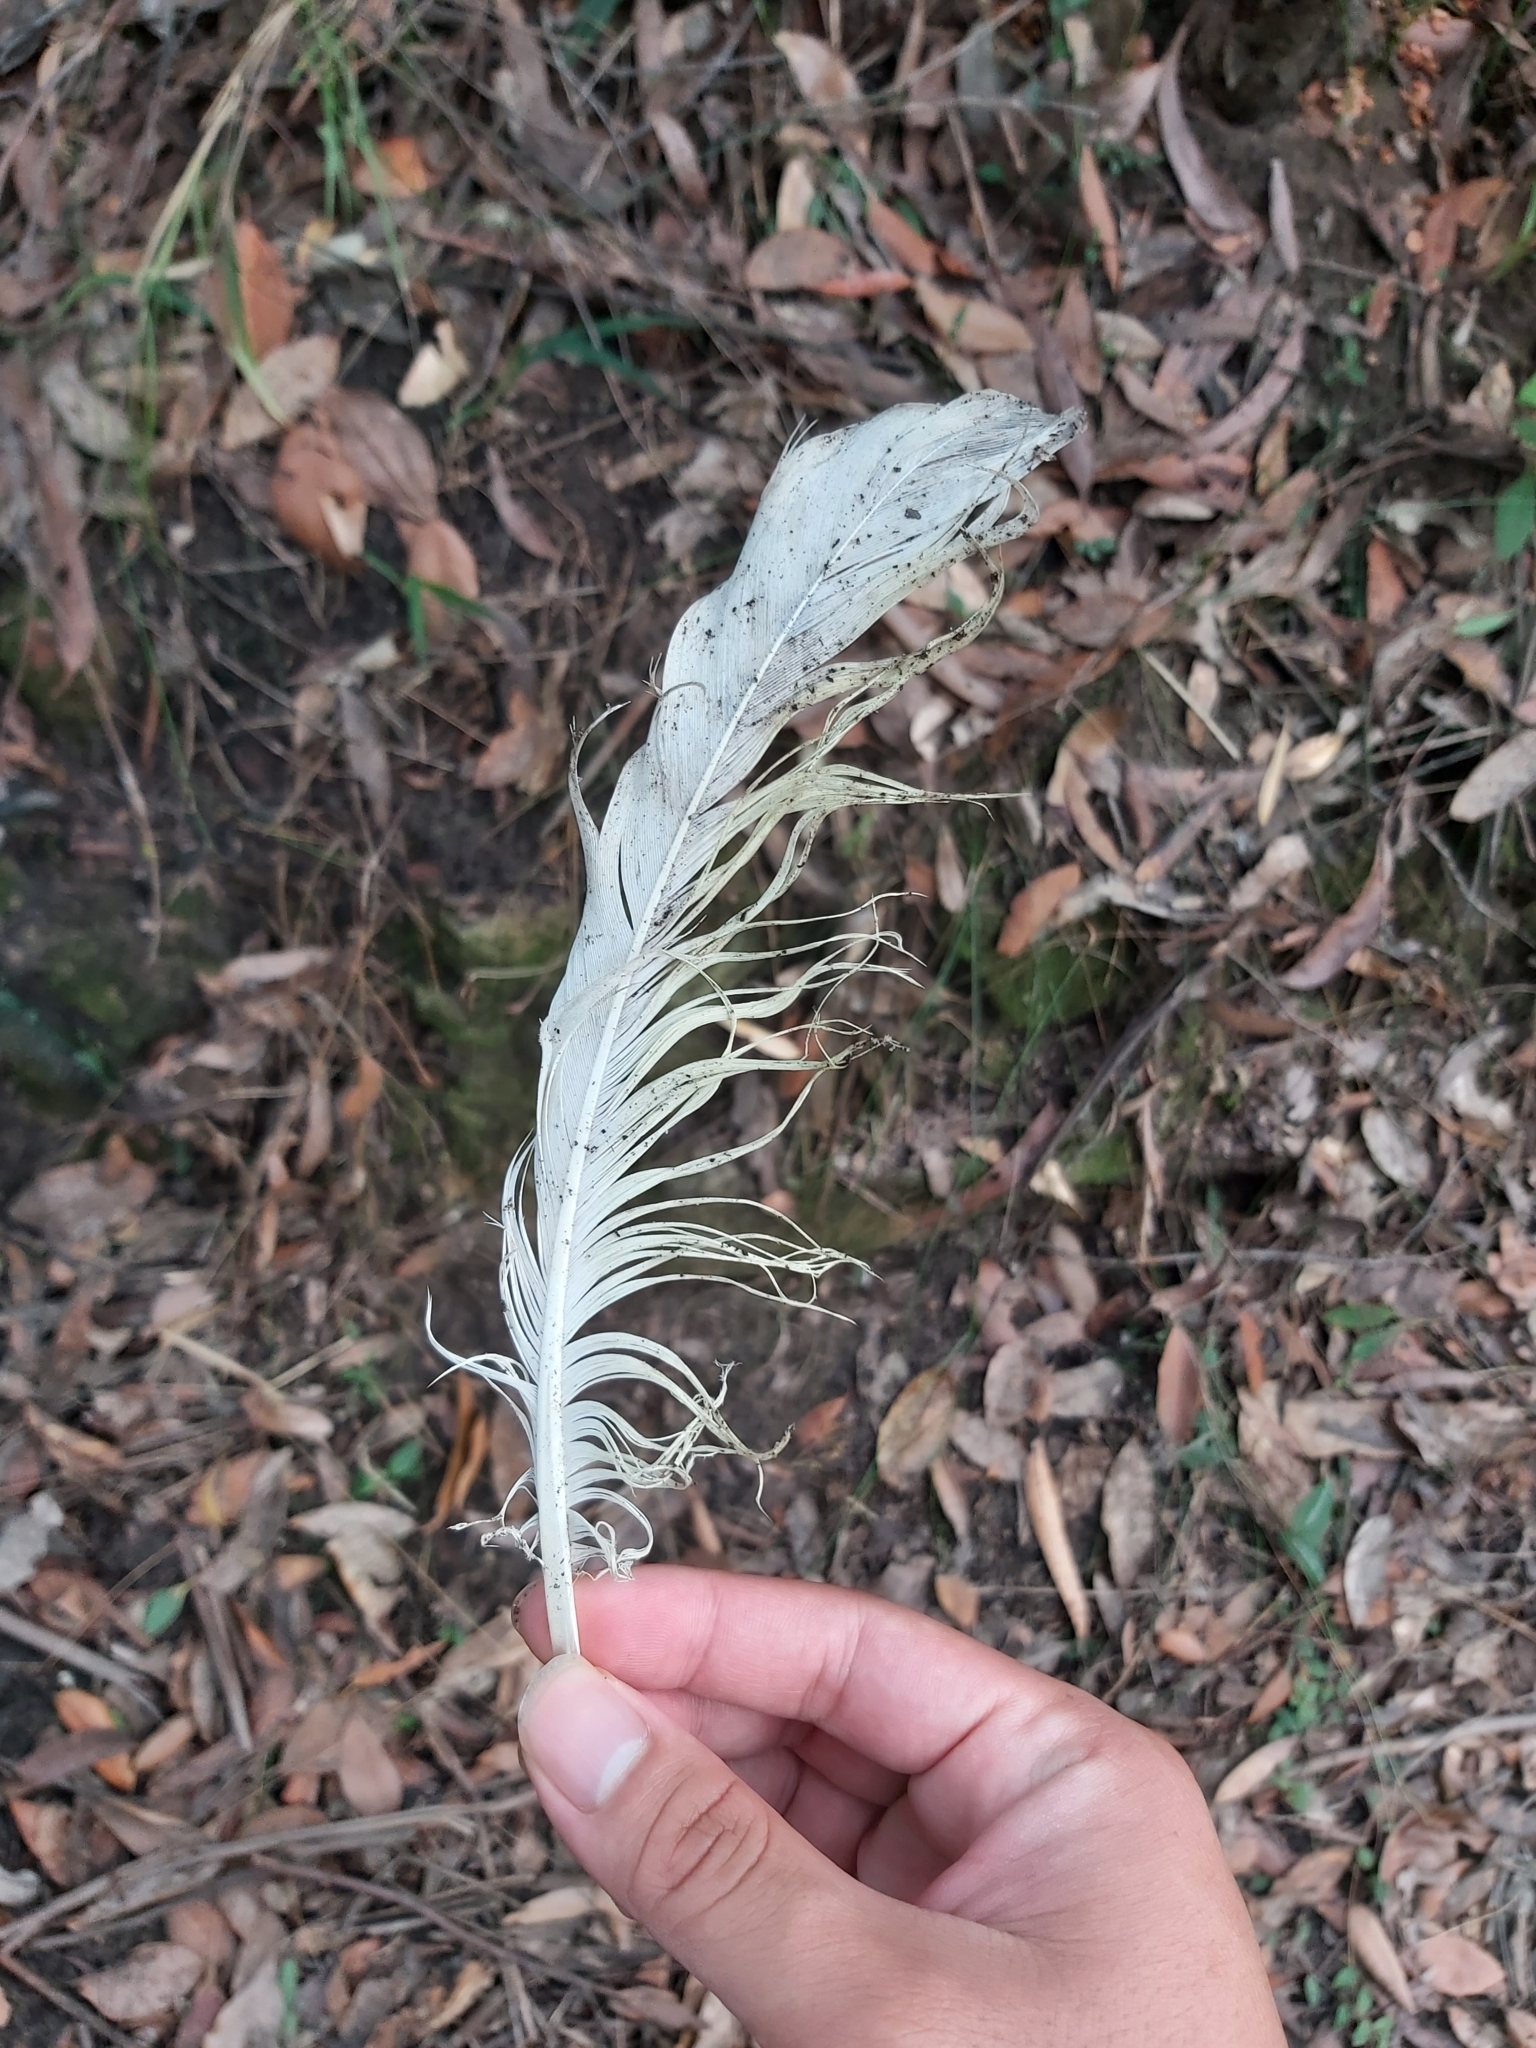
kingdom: Animalia
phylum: Chordata
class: Aves
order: Psittaciformes
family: Psittacidae
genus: Cacatua
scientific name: Cacatua galerita
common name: Sulphur-crested cockatoo
